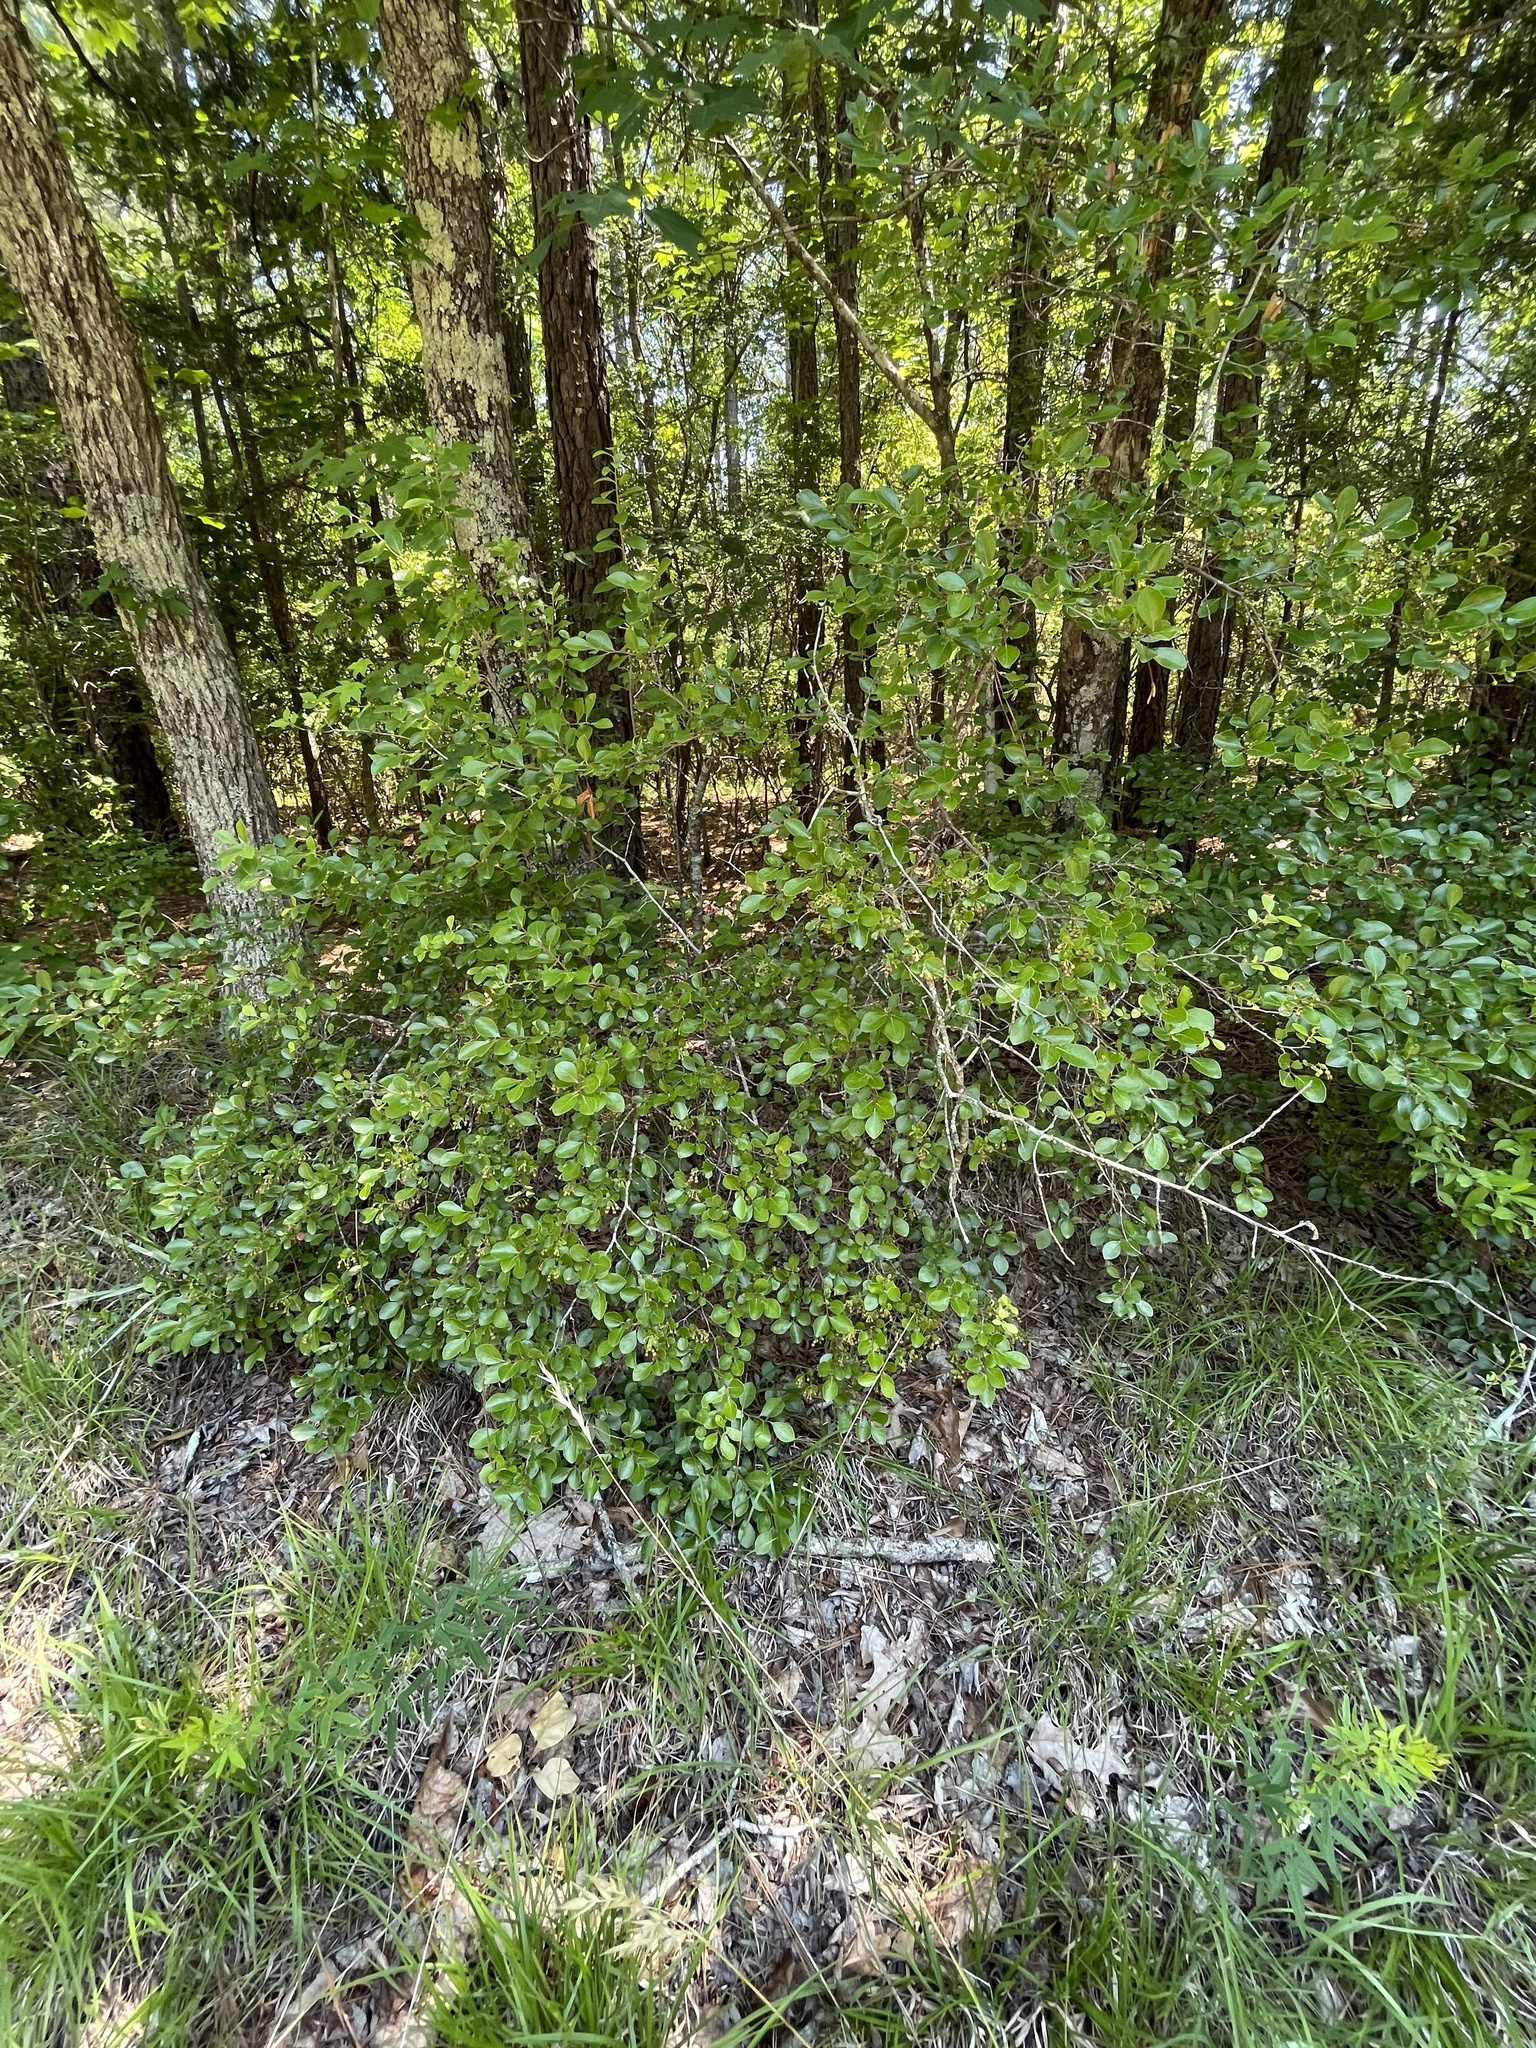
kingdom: Plantae
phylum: Tracheophyta
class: Magnoliopsida
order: Ericales
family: Ericaceae
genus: Vaccinium
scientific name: Vaccinium arboreum
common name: Farkleberry
